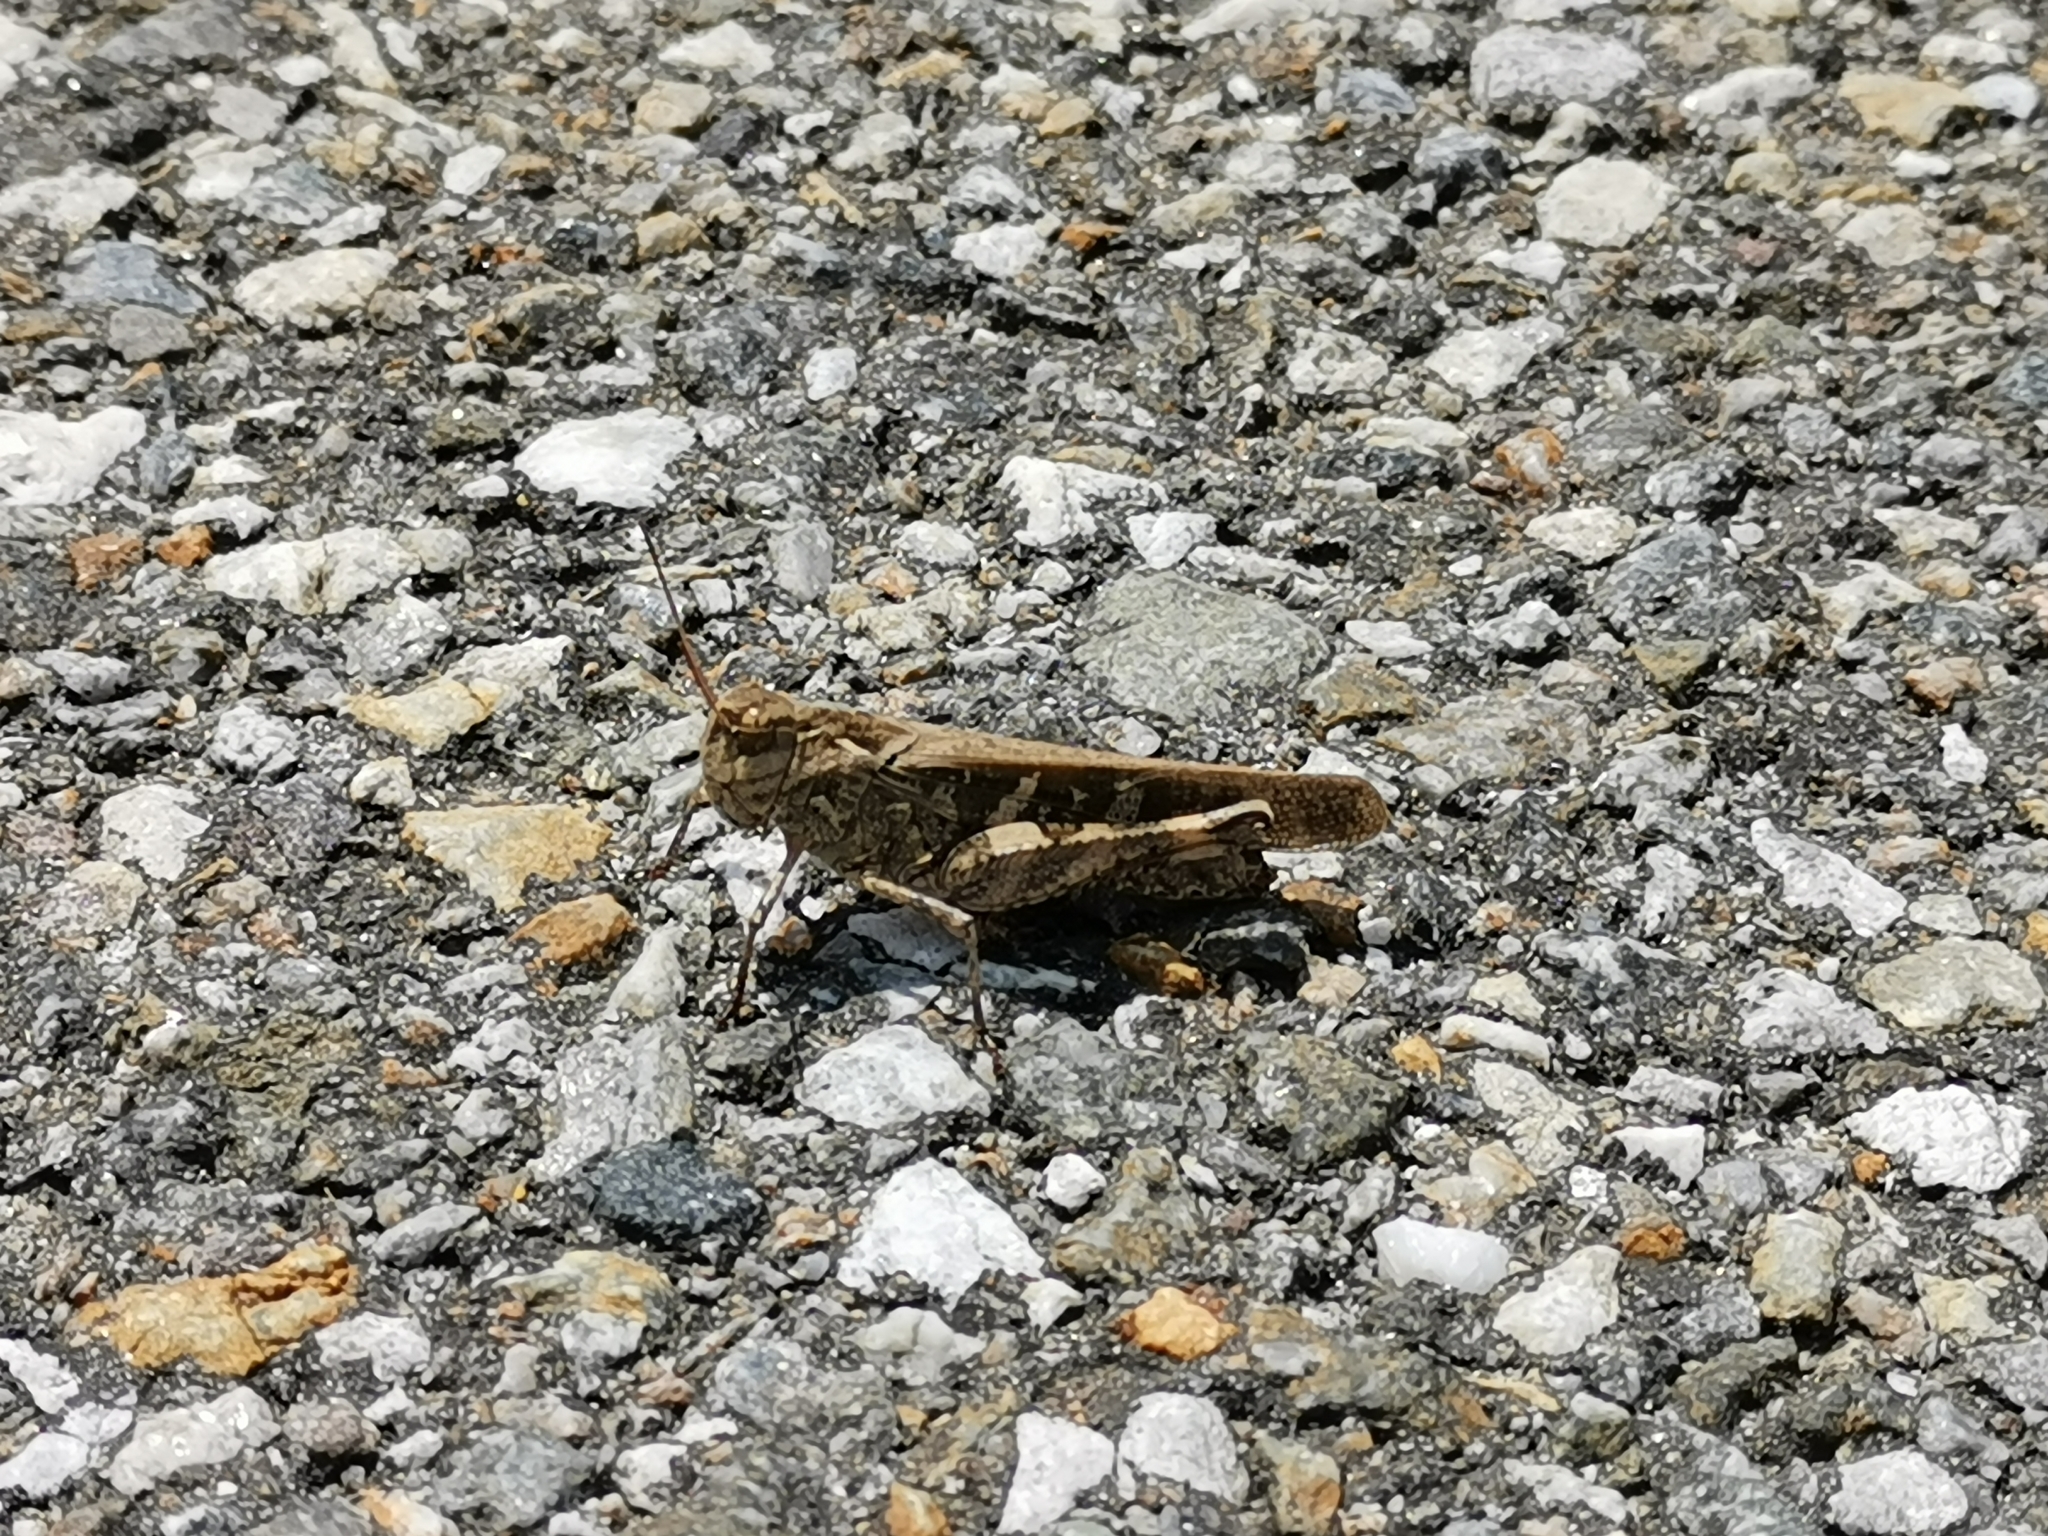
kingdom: Animalia
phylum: Arthropoda
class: Insecta
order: Orthoptera
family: Acrididae
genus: Oedaleus
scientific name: Oedaleus infernalis
